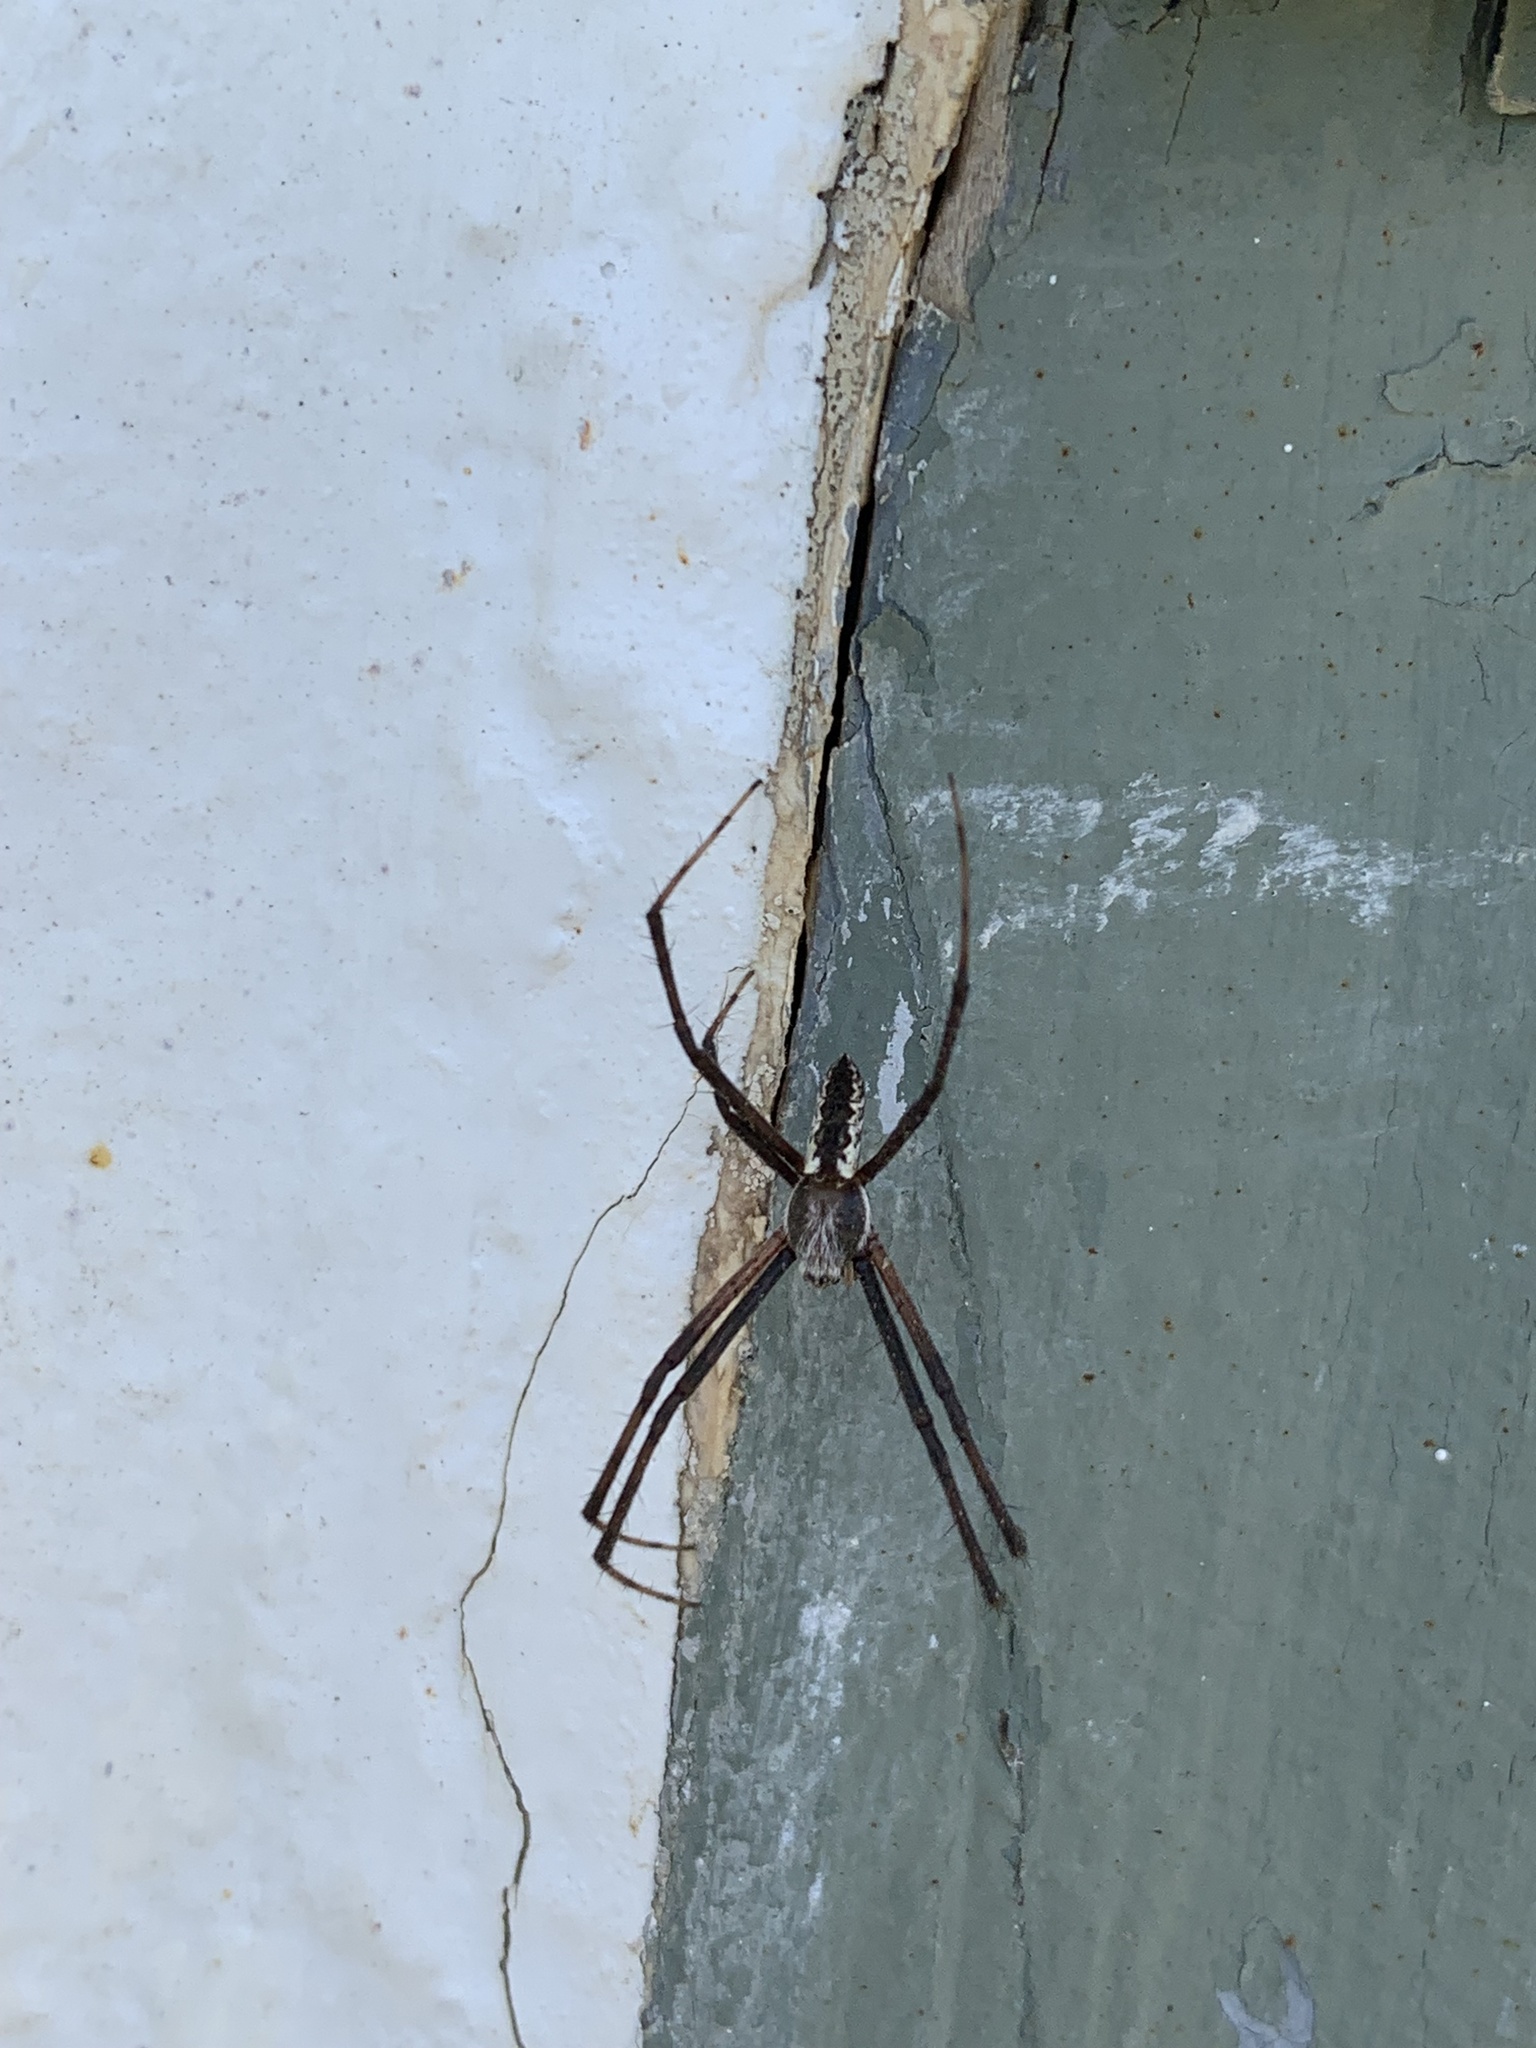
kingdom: Animalia
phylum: Arthropoda
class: Arachnida
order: Araneae
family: Araneidae
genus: Argiope
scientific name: Argiope aurantia
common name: Orb weavers
